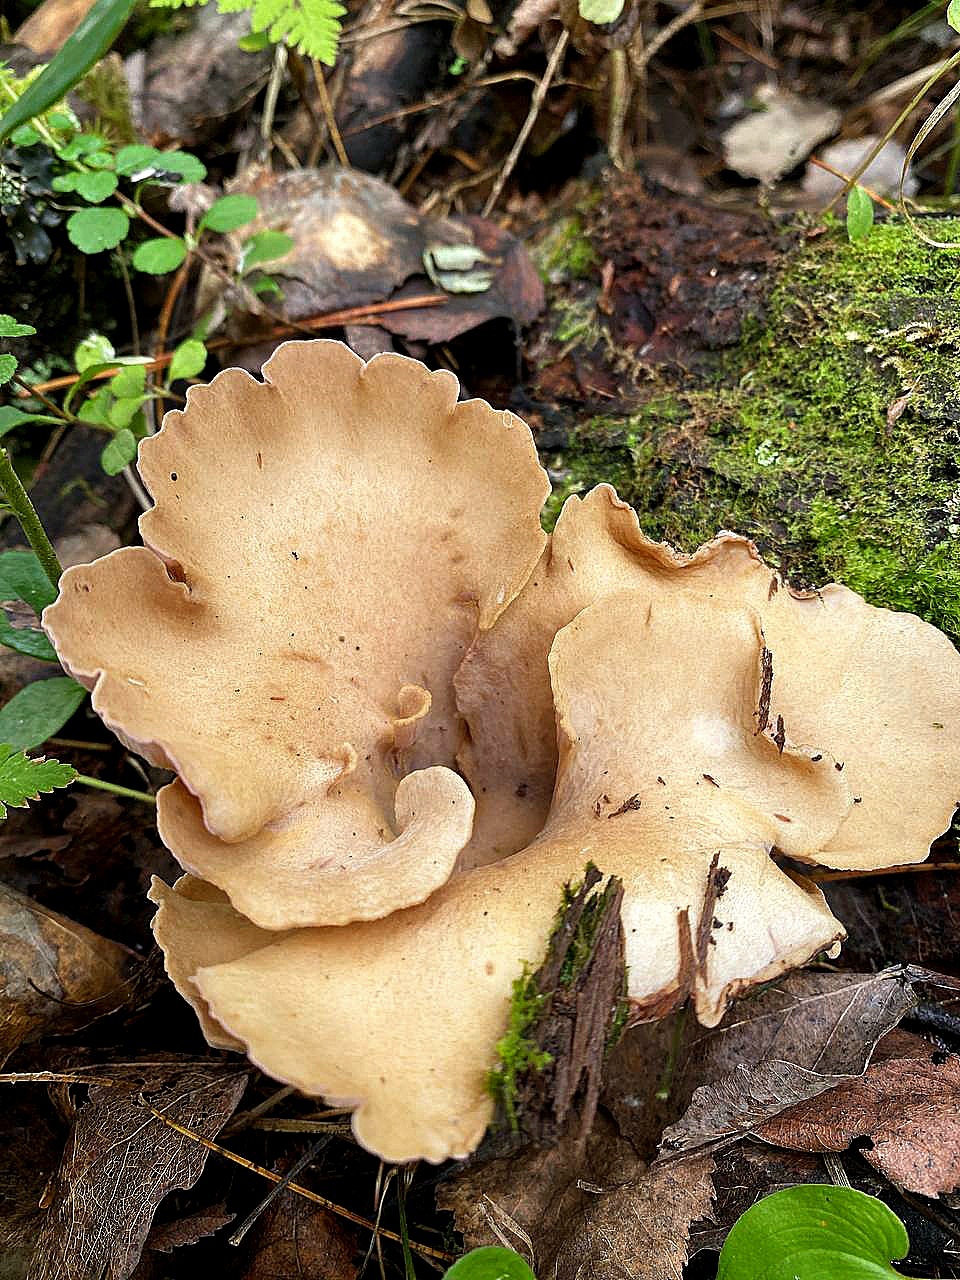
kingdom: Fungi
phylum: Basidiomycota
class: Agaricomycetes
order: Gomphales
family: Gomphaceae
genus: Gomphus
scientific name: Gomphus clavatus
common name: Pig's ear
